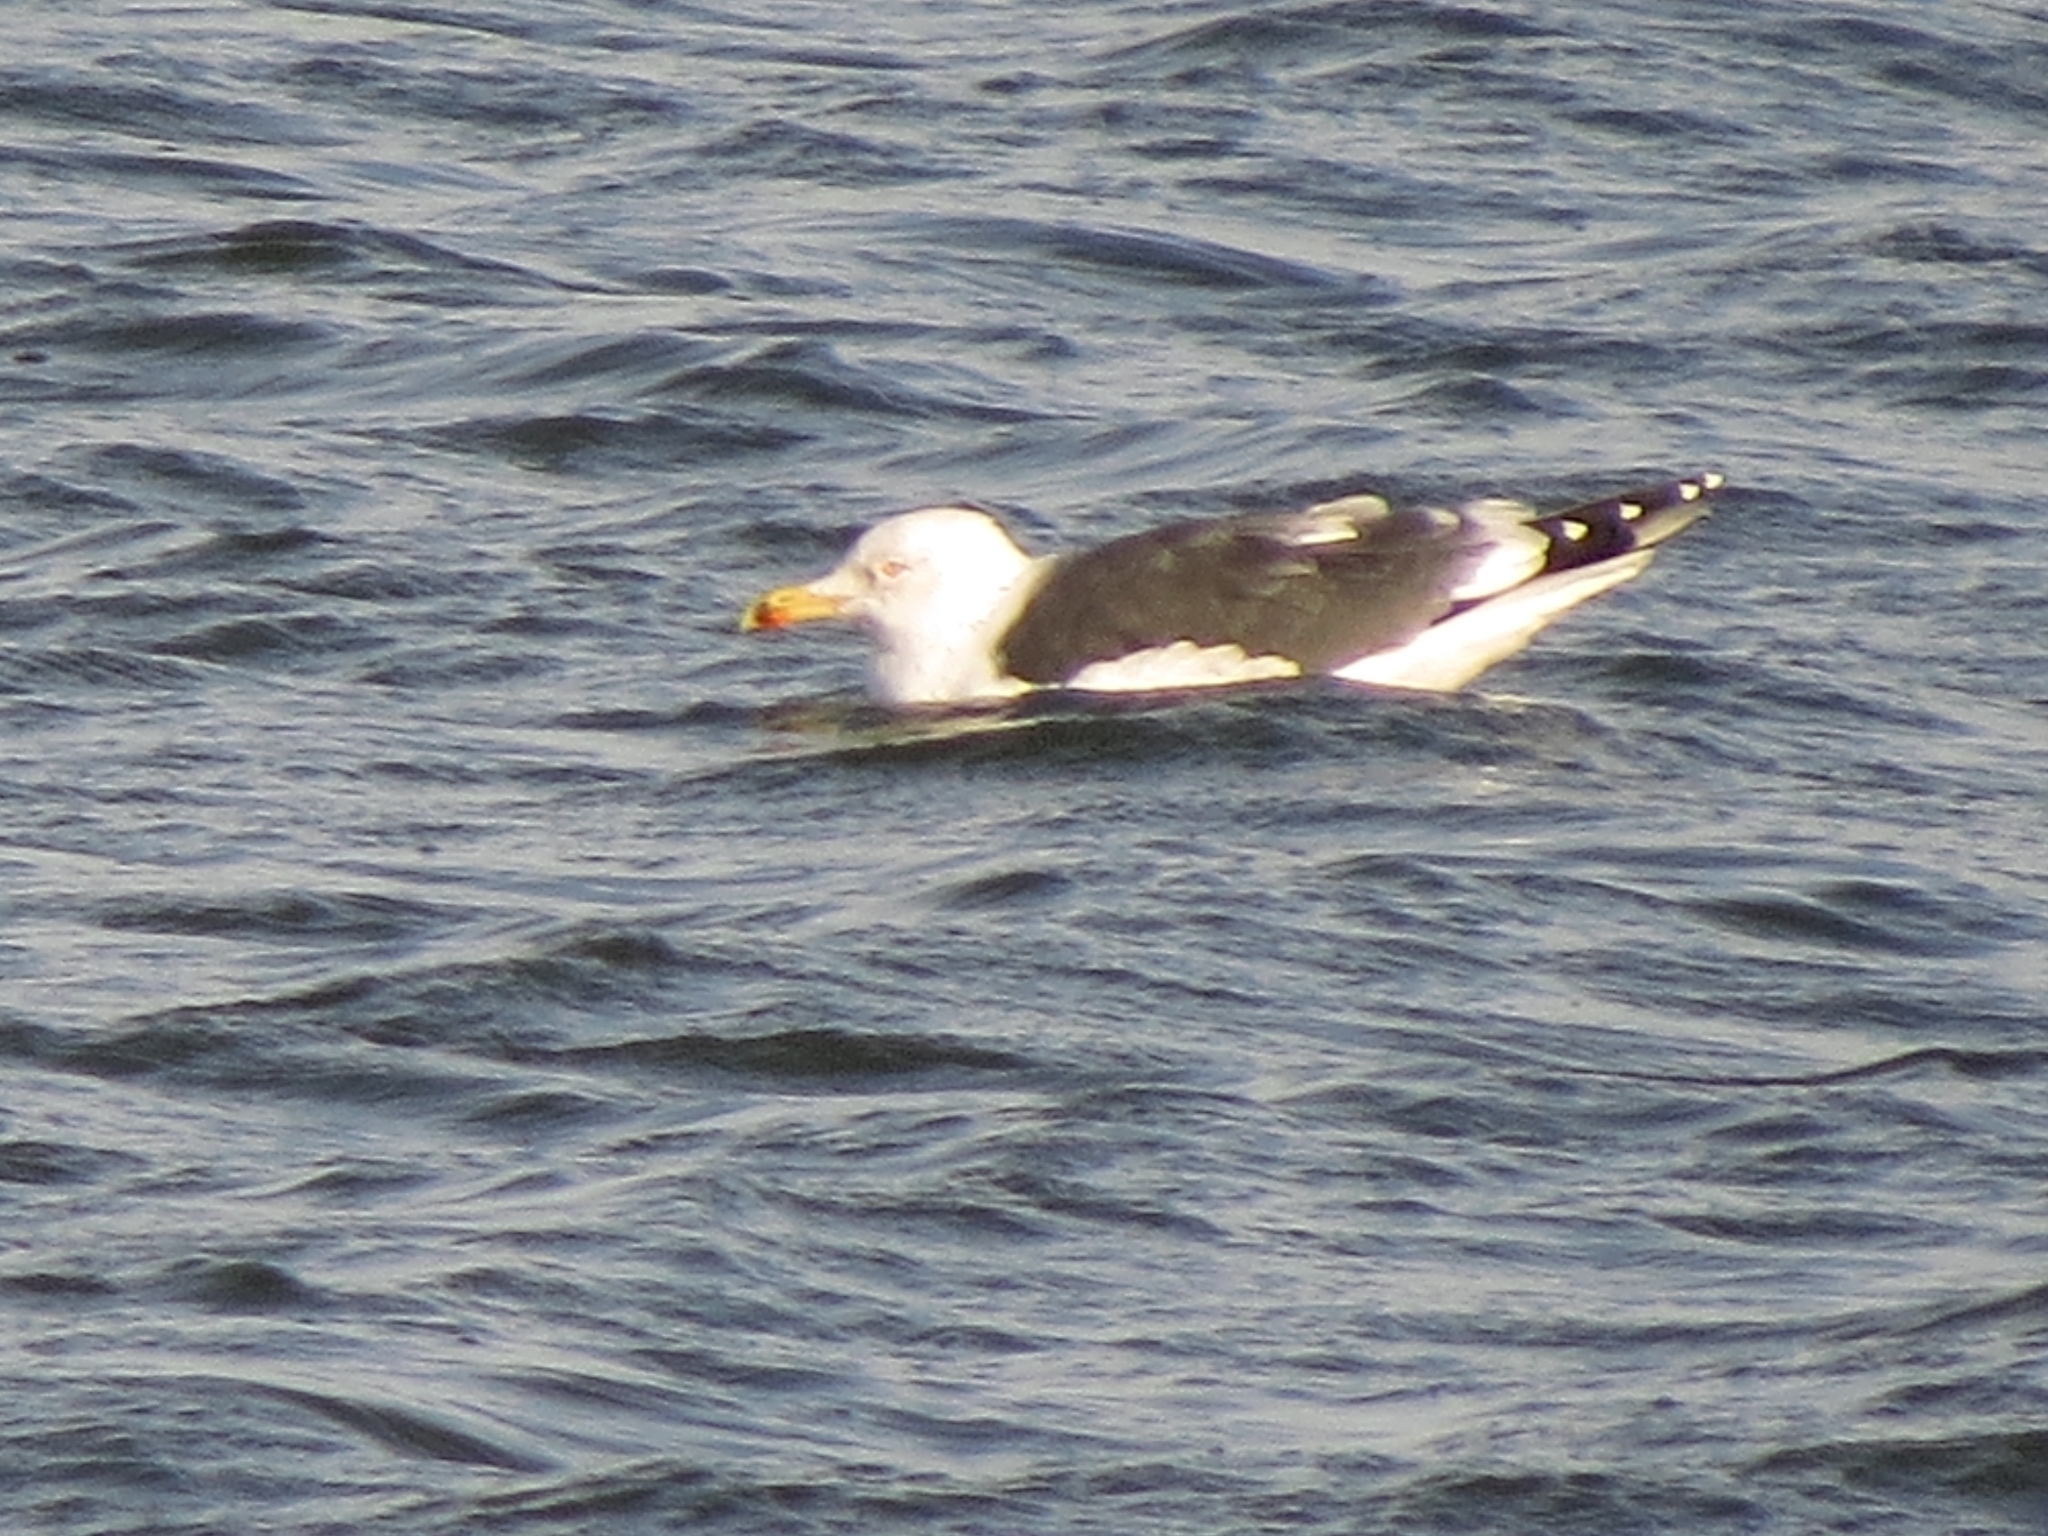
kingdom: Animalia
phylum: Chordata
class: Aves
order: Charadriiformes
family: Laridae
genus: Larus
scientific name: Larus fuscus
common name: Lesser black-backed gull
